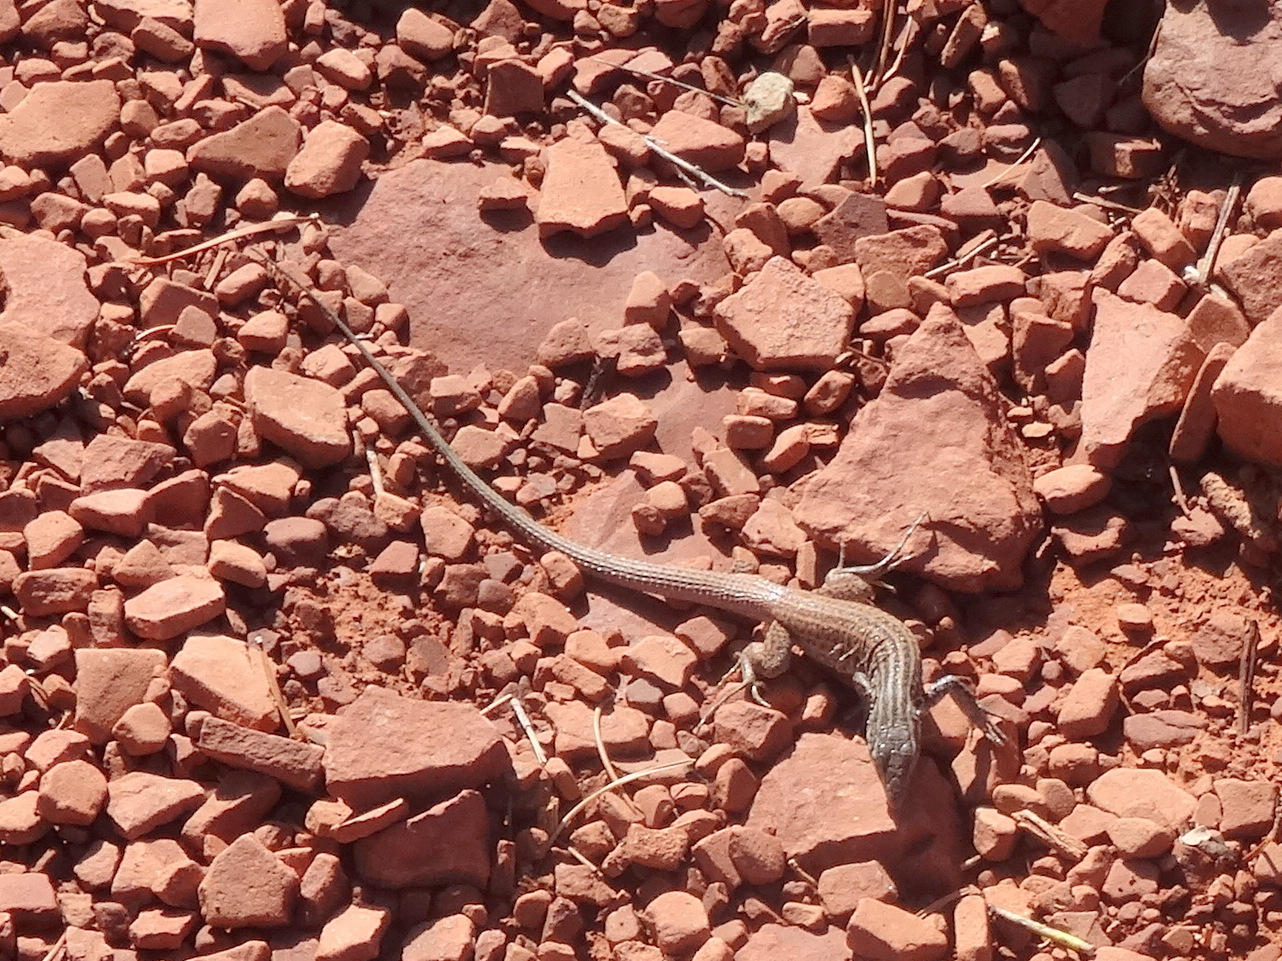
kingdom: Animalia
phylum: Chordata
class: Squamata
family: Teiidae
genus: Aspidoscelis
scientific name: Aspidoscelis tigris
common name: Tiger whiptail
